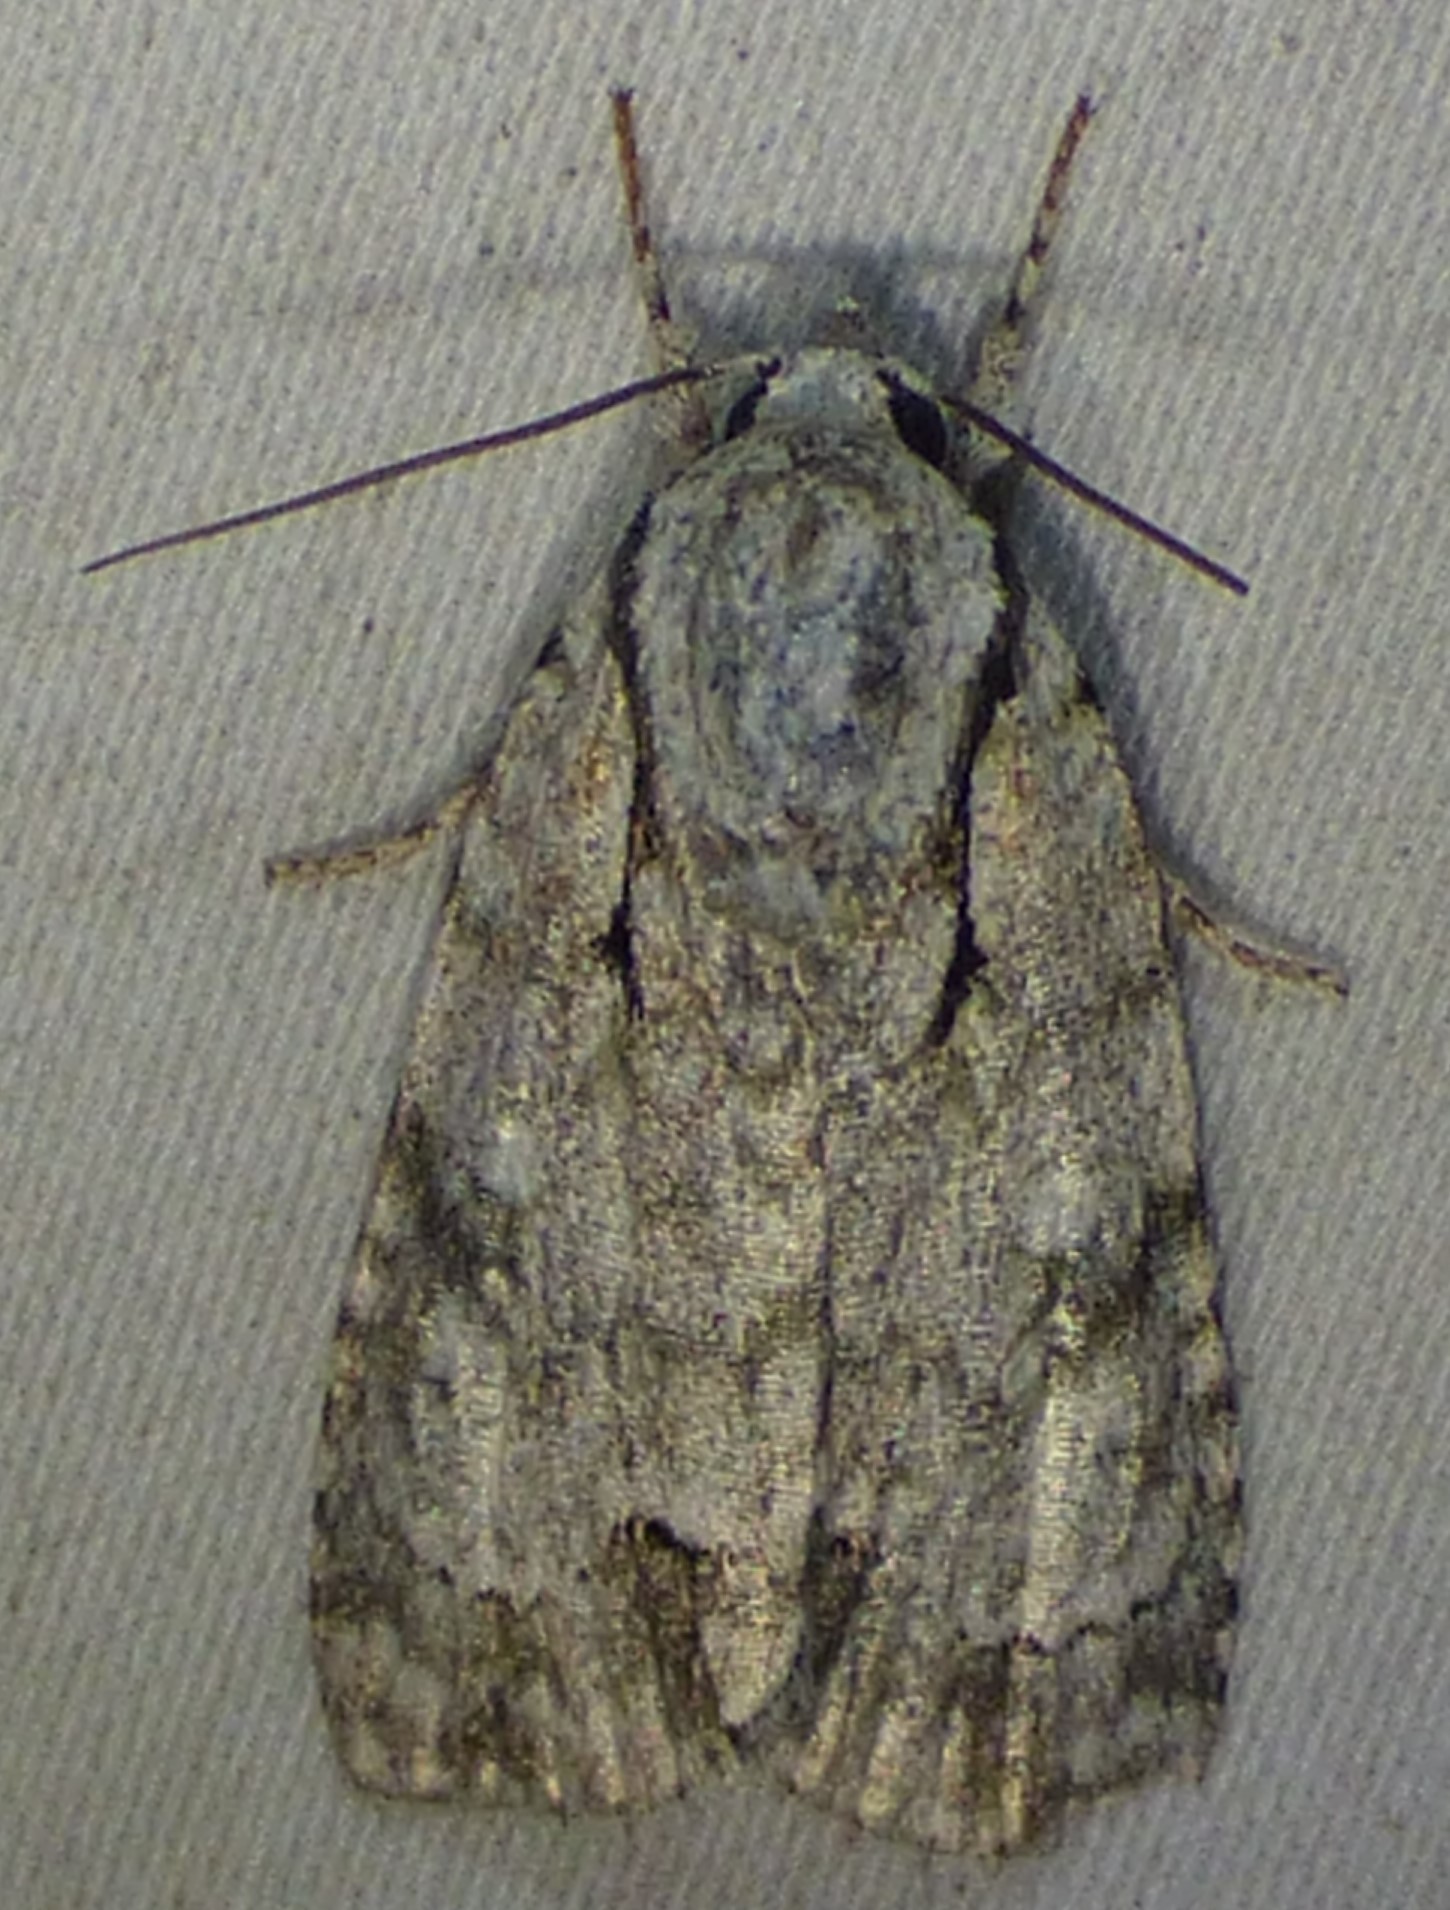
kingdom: Animalia
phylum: Arthropoda
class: Insecta
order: Lepidoptera
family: Noctuidae
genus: Acronicta
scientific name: Acronicta vinnula
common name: Delightful dagger
